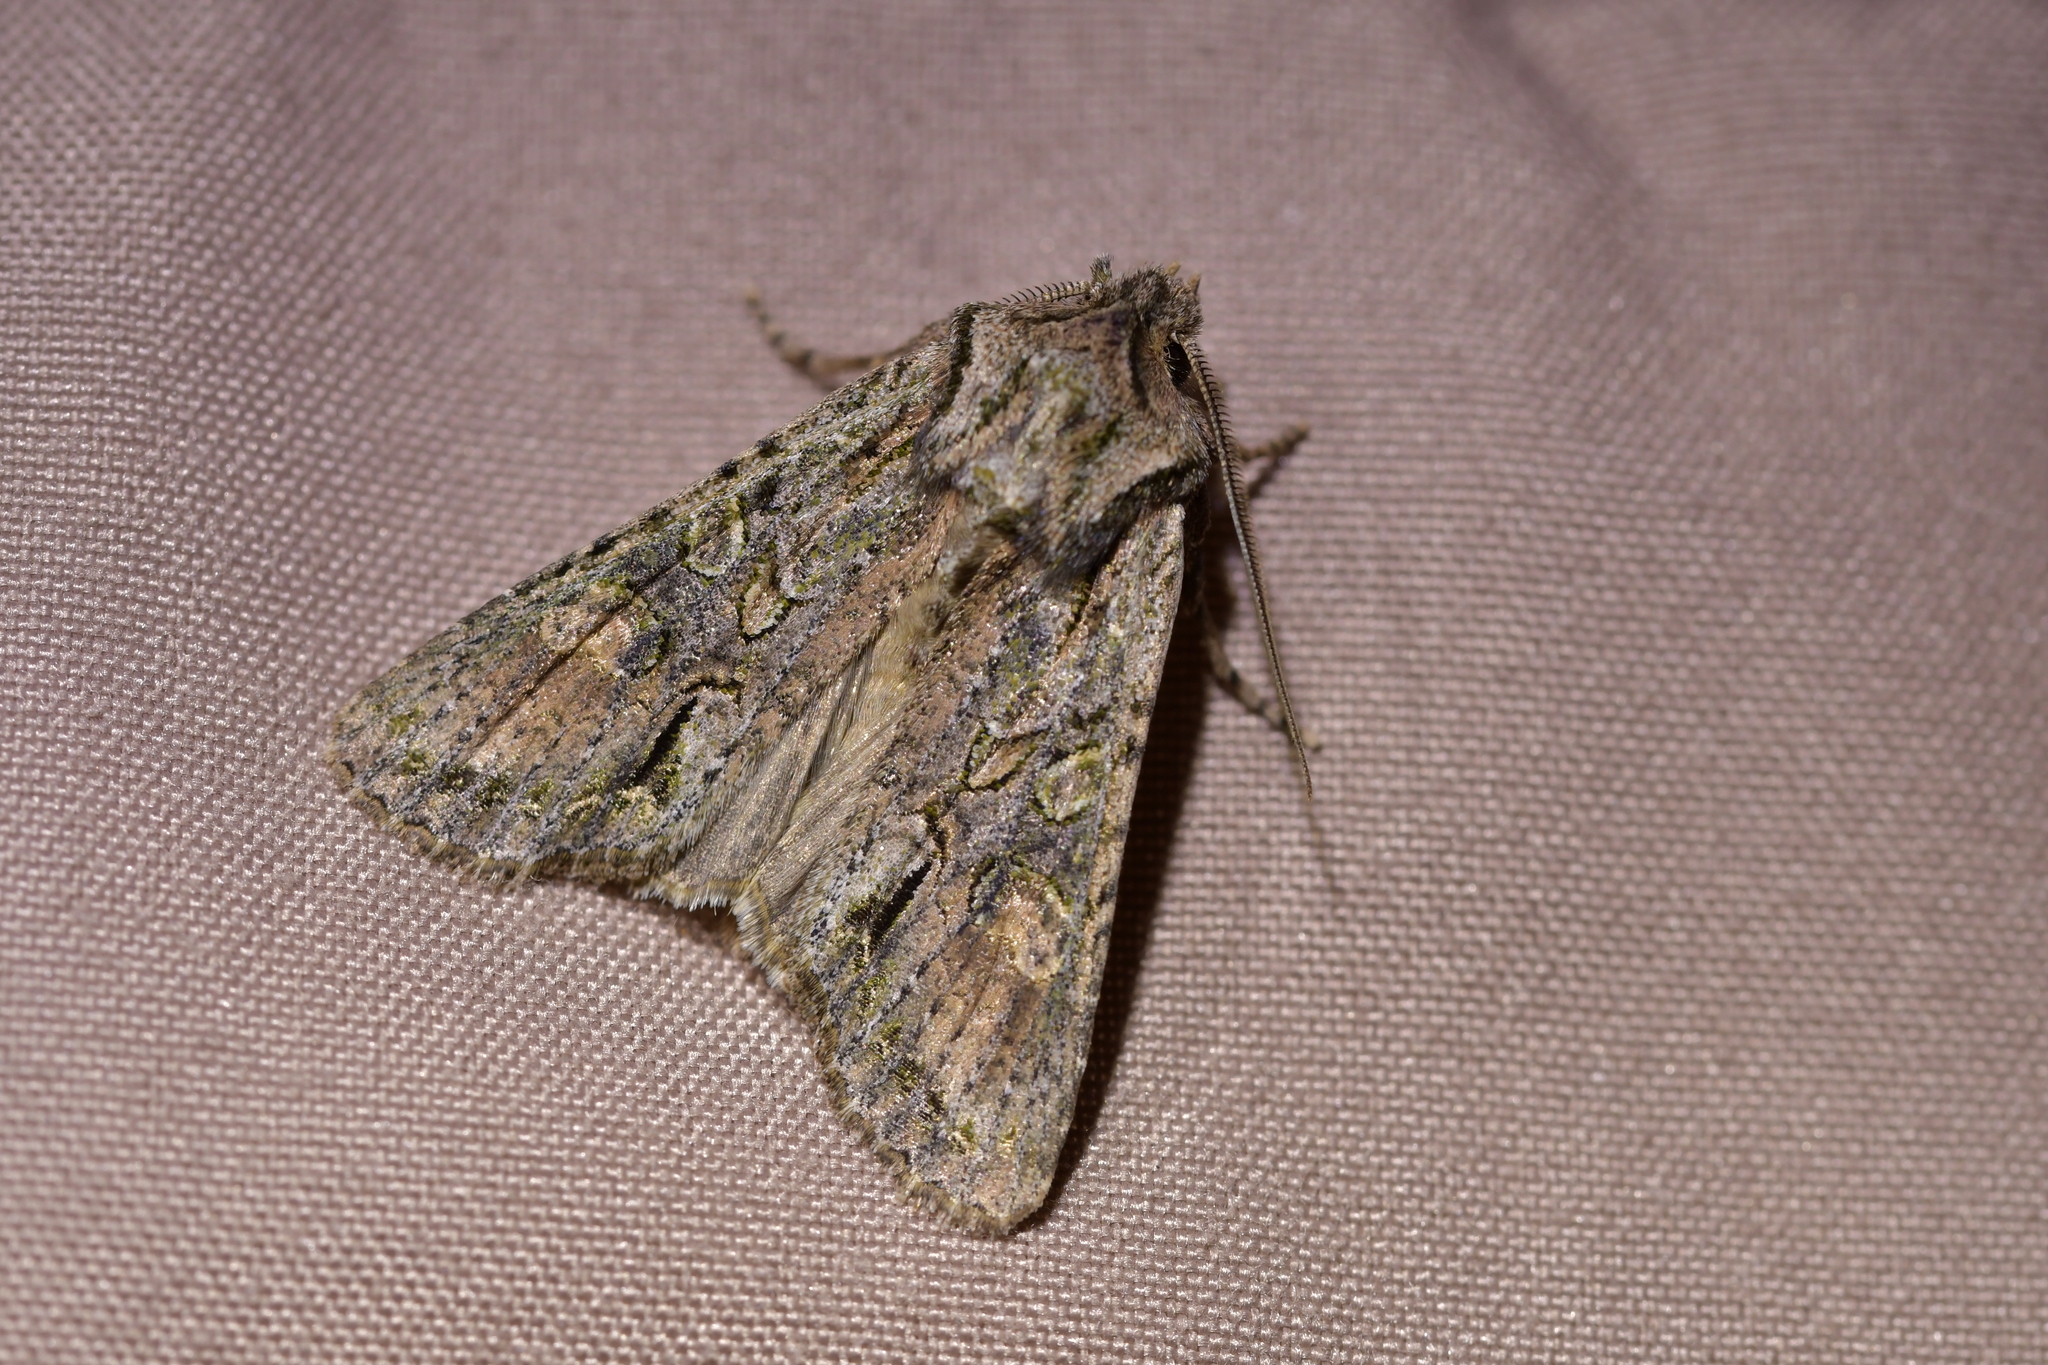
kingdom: Animalia
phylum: Arthropoda
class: Insecta
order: Lepidoptera
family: Noctuidae
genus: Ichneutica
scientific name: Ichneutica mutans
